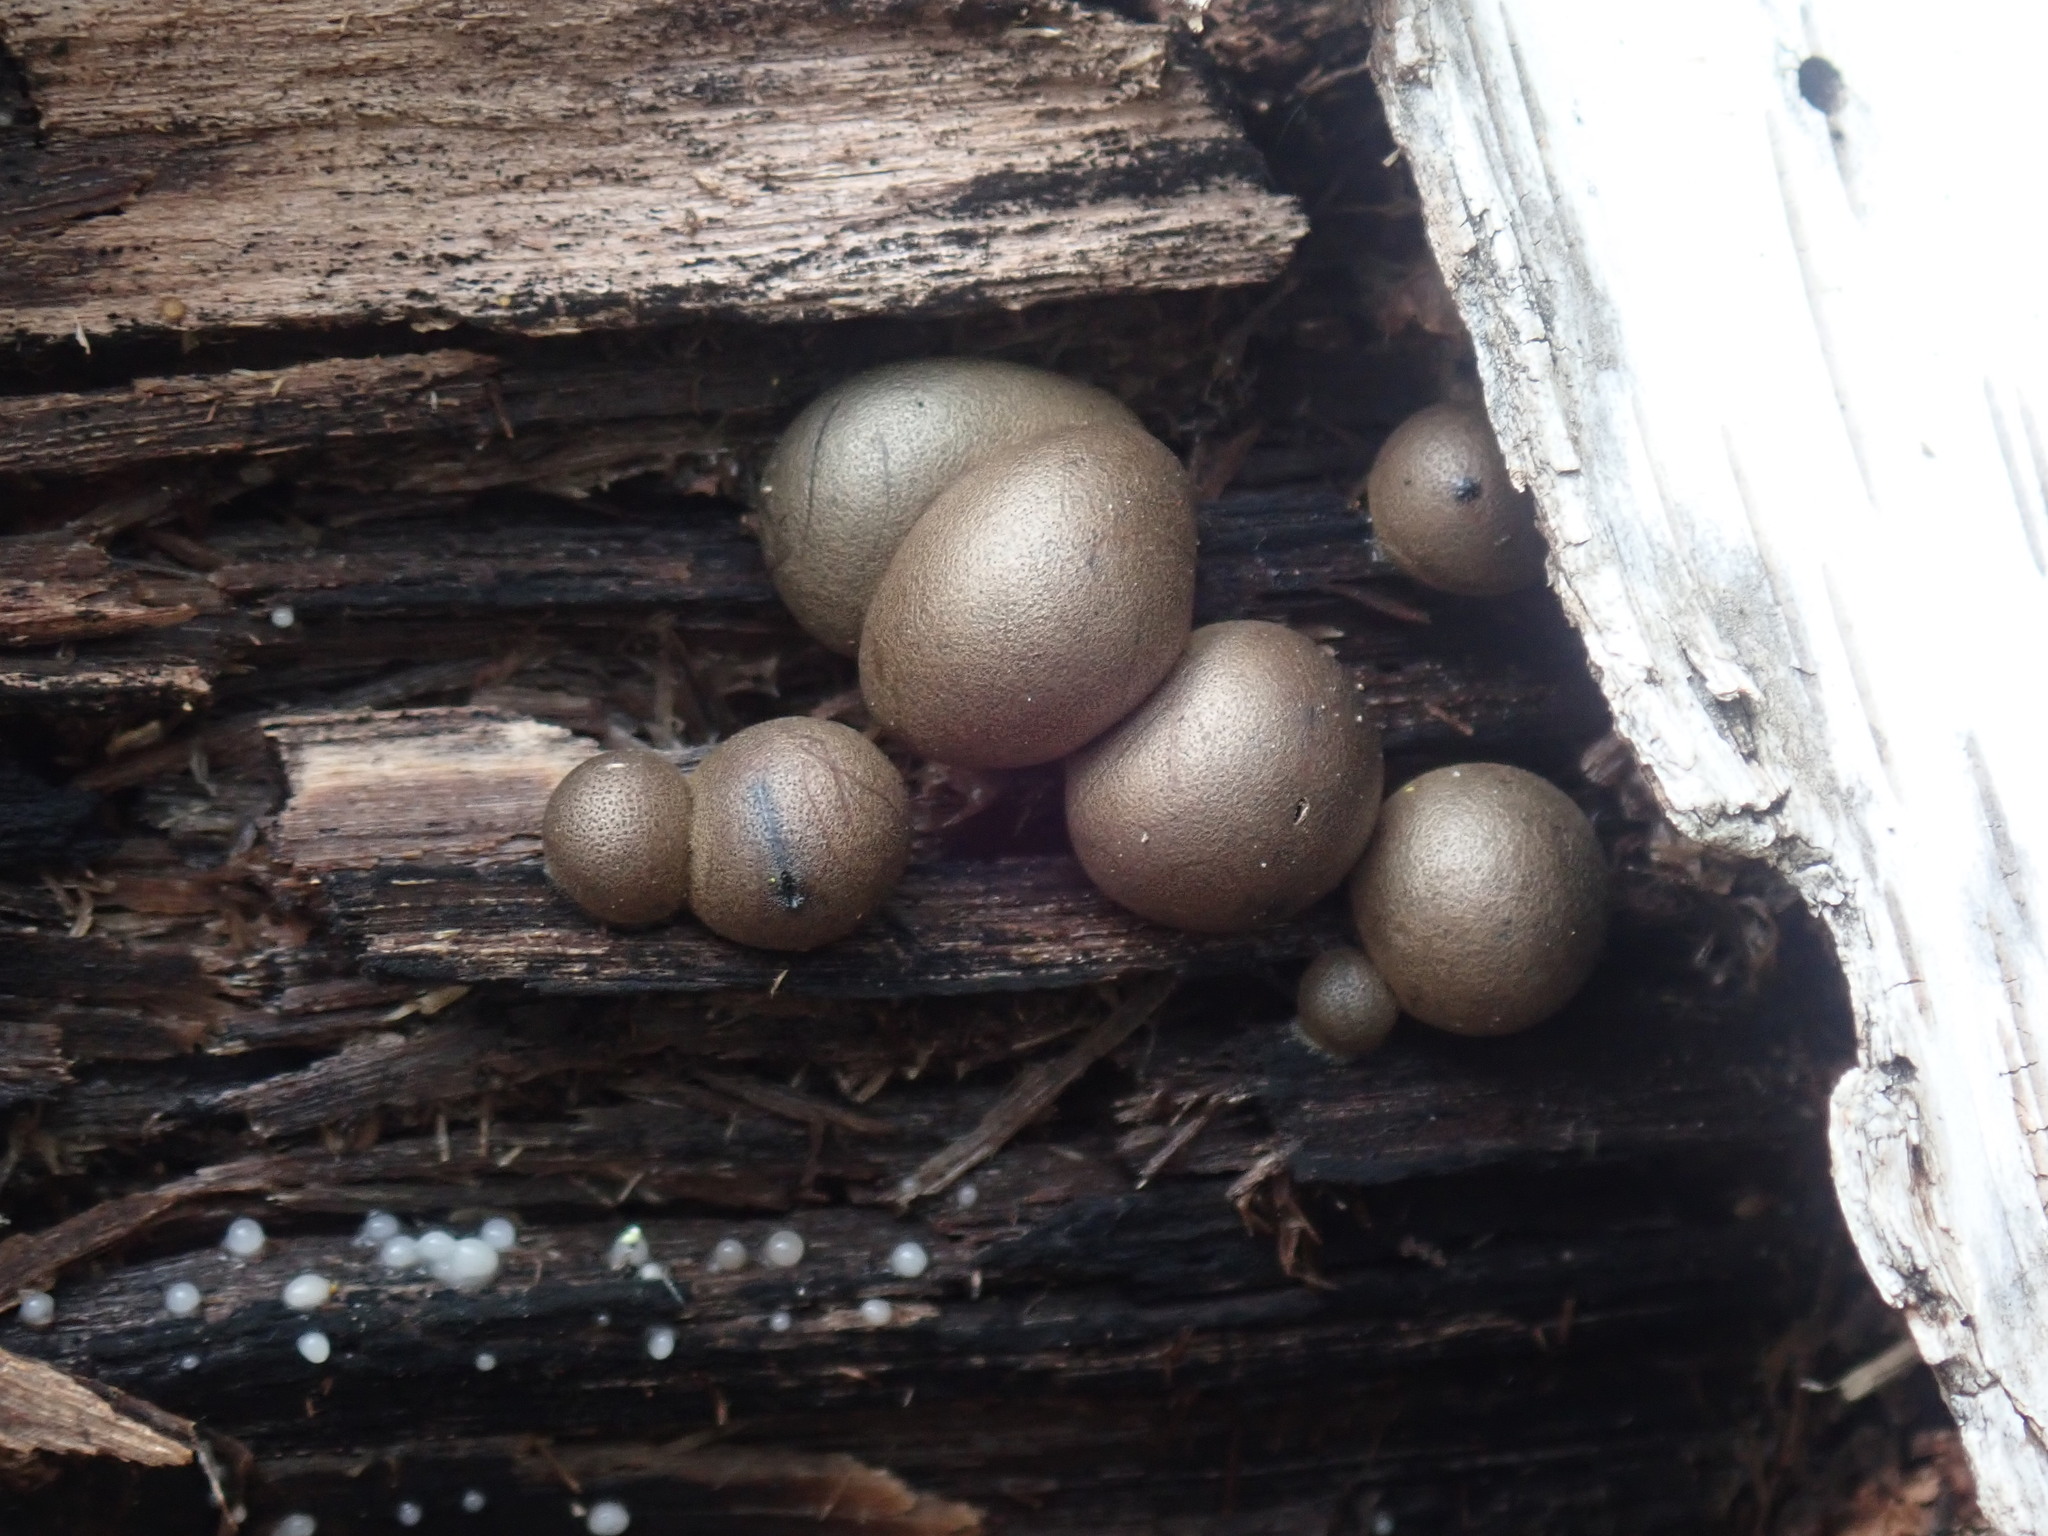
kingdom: Protozoa
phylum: Mycetozoa
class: Myxomycetes
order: Cribrariales
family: Tubiferaceae
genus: Lycogala
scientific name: Lycogala epidendrum
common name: Wolf's milk
